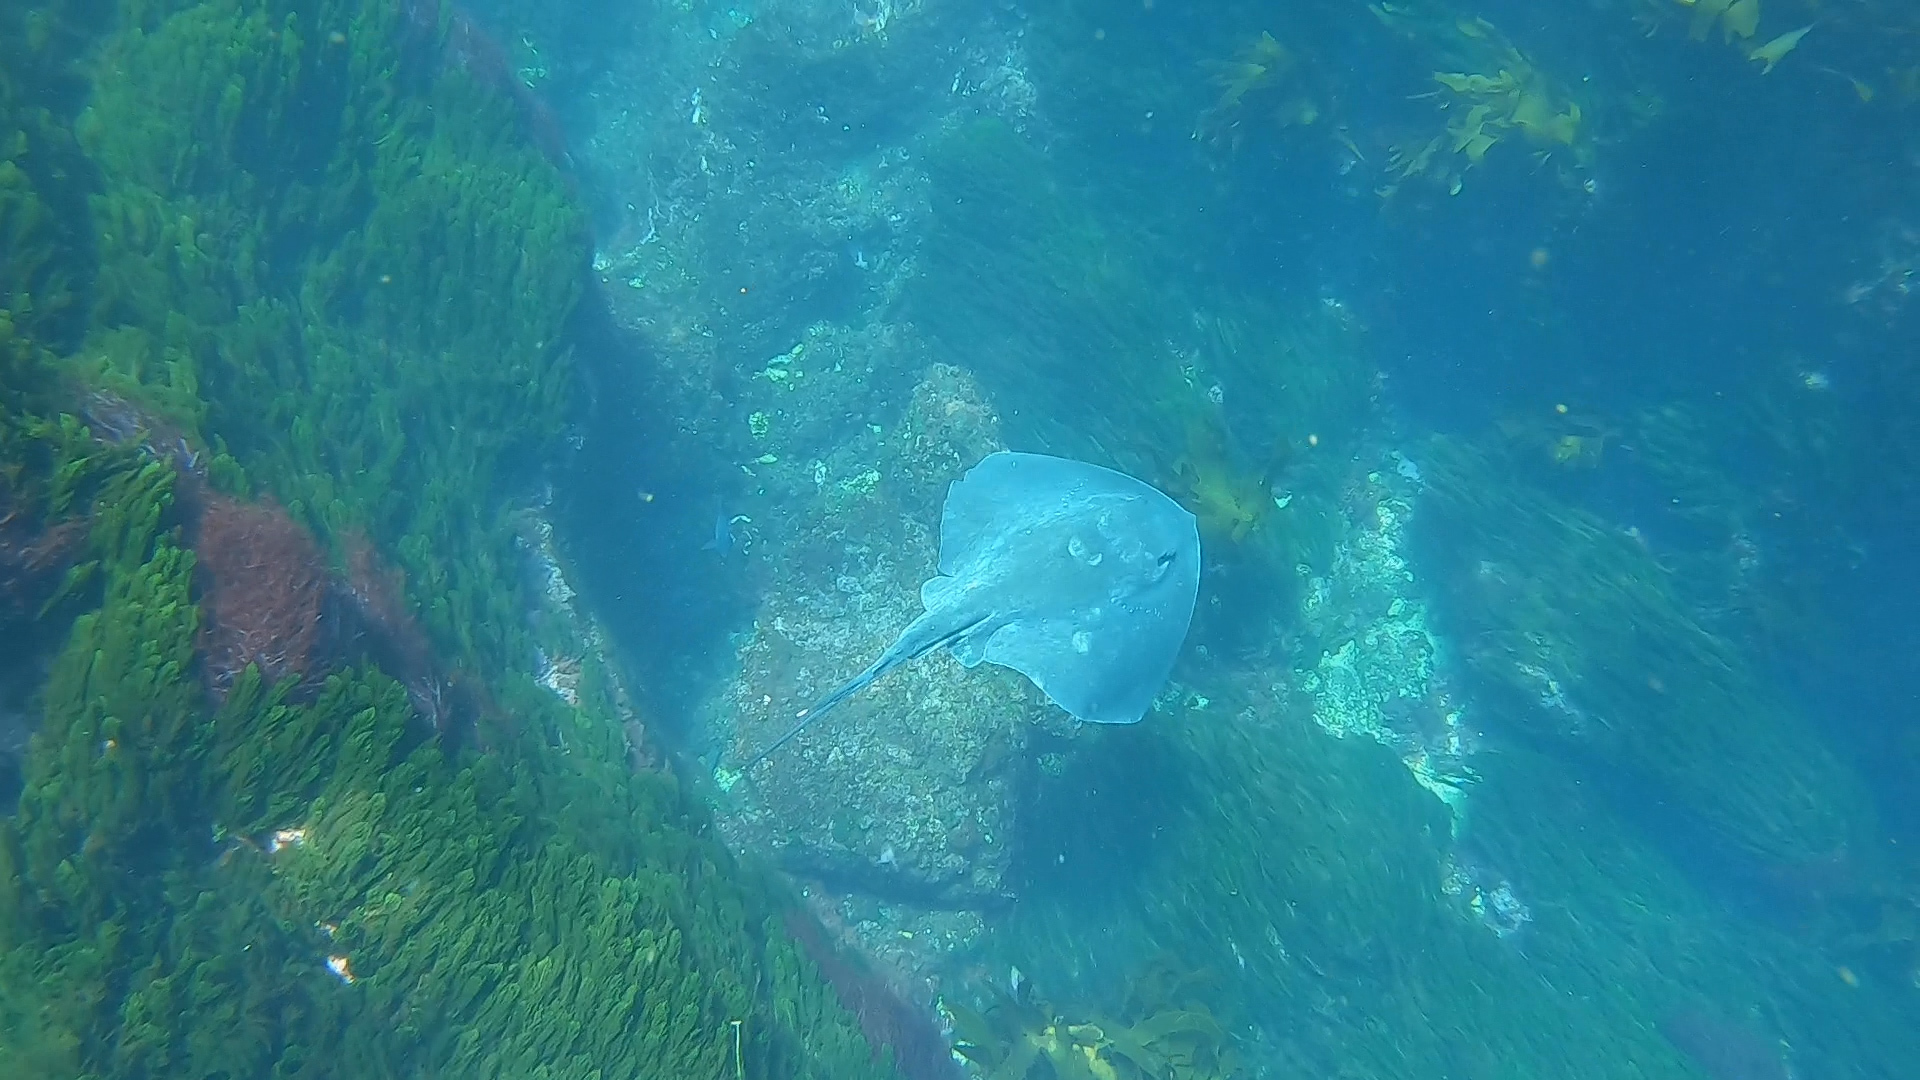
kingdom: Animalia
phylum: Chordata
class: Elasmobranchii
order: Myliobatiformes
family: Dasyatidae
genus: Bathytoshia
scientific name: Bathytoshia brevicaudata
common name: Short-tail stingray
